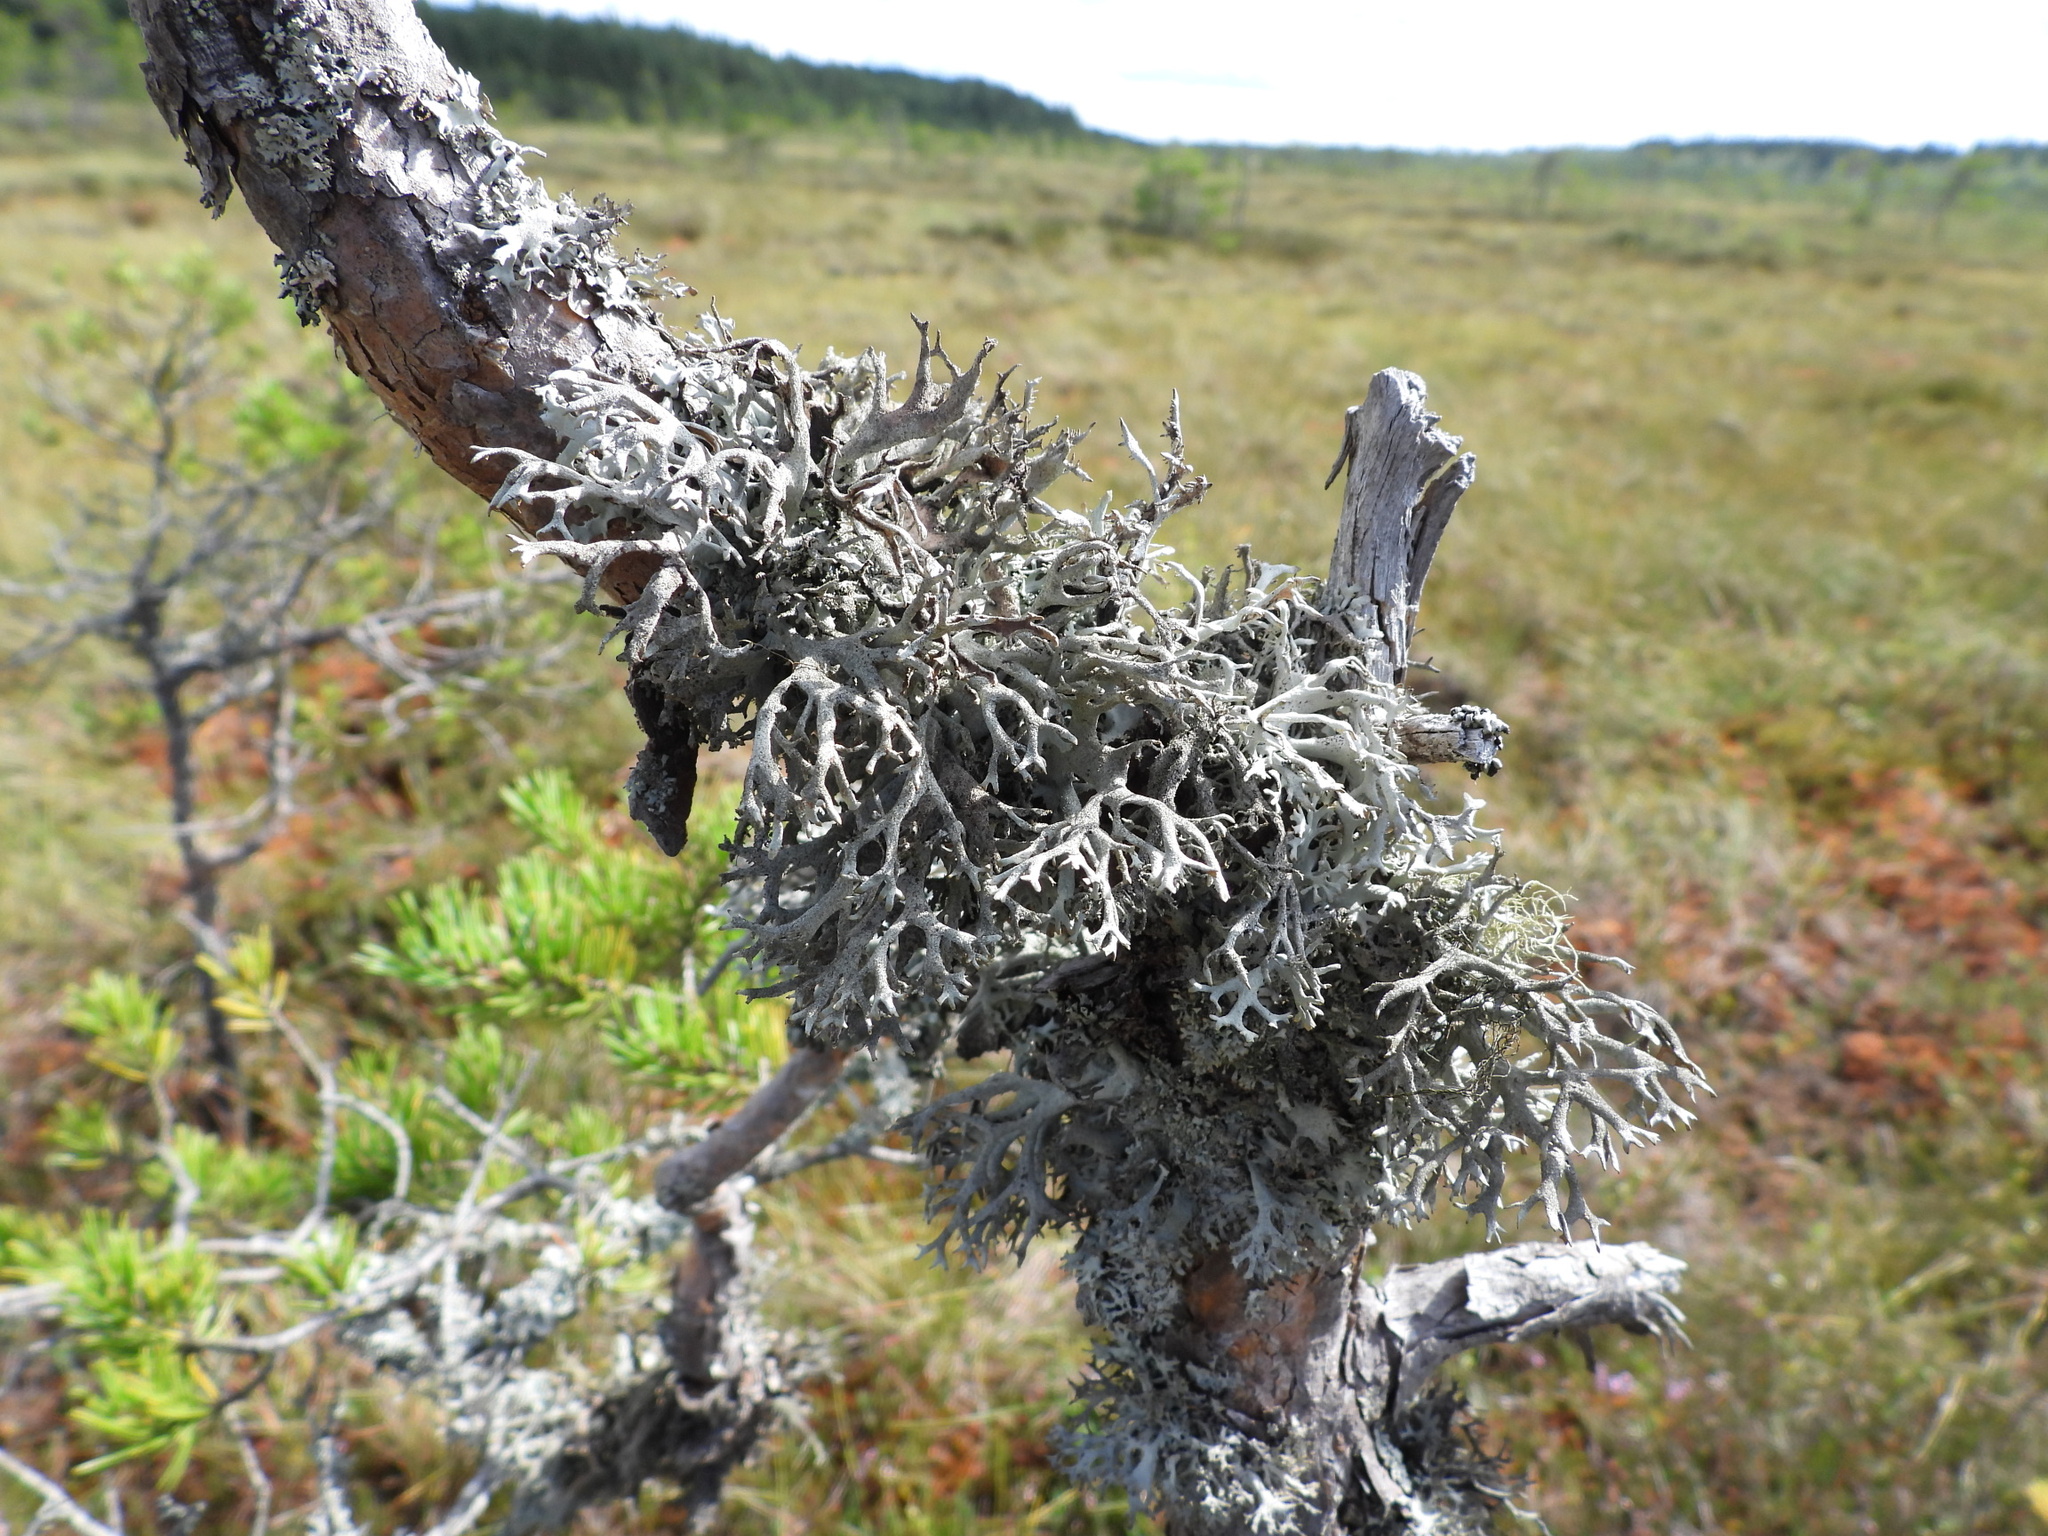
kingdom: Fungi
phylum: Ascomycota
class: Lecanoromycetes
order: Lecanorales
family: Parmeliaceae
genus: Pseudevernia
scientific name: Pseudevernia furfuracea
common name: Tree moss
